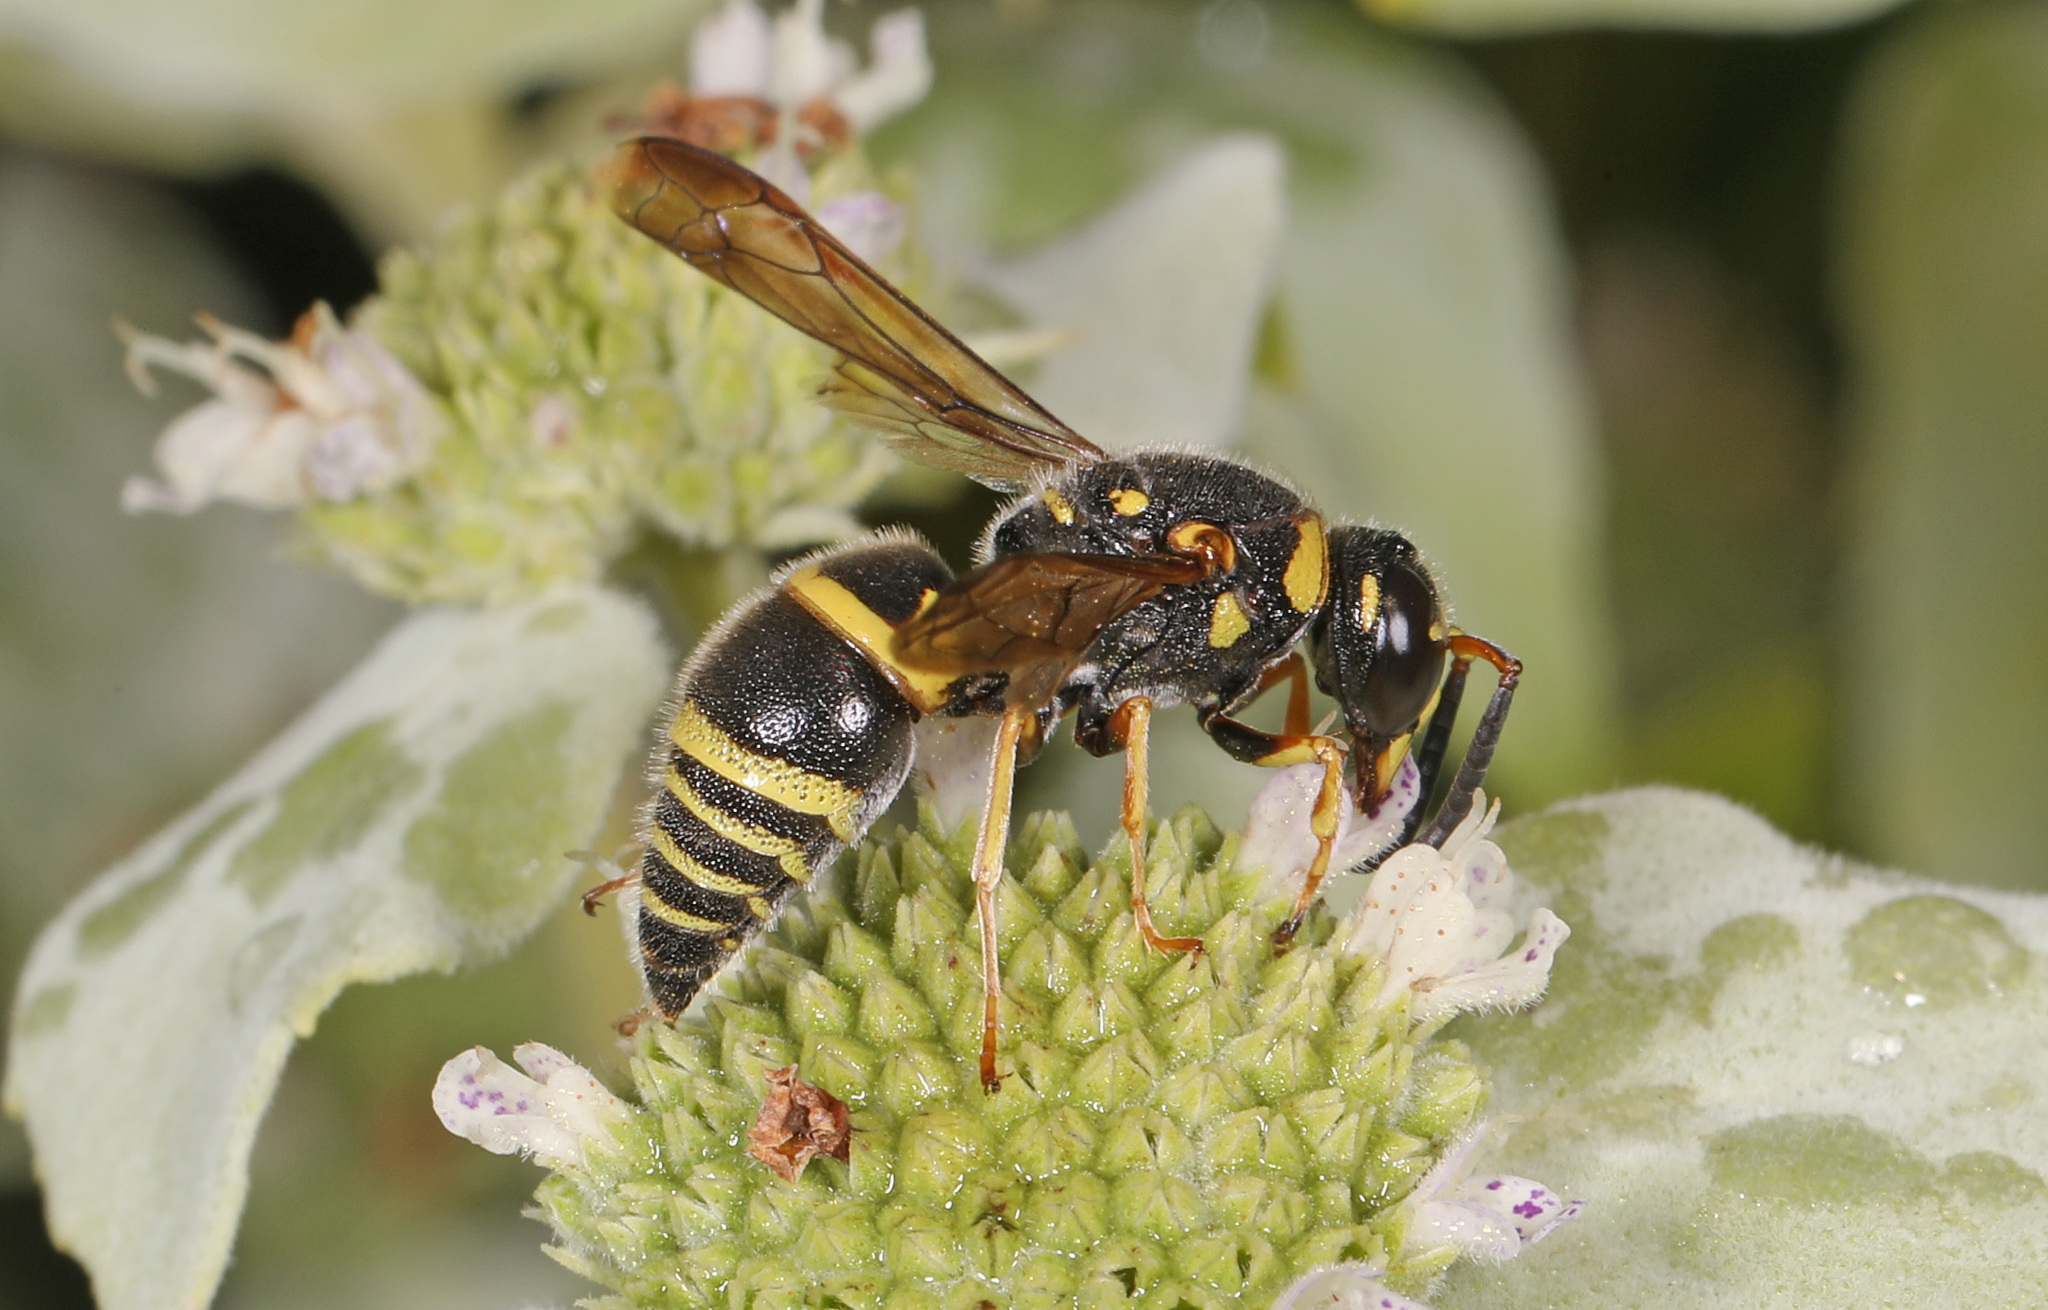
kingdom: Animalia
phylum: Arthropoda
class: Insecta
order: Hymenoptera
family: Eumenidae
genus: Euodynerus
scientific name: Euodynerus boscii
